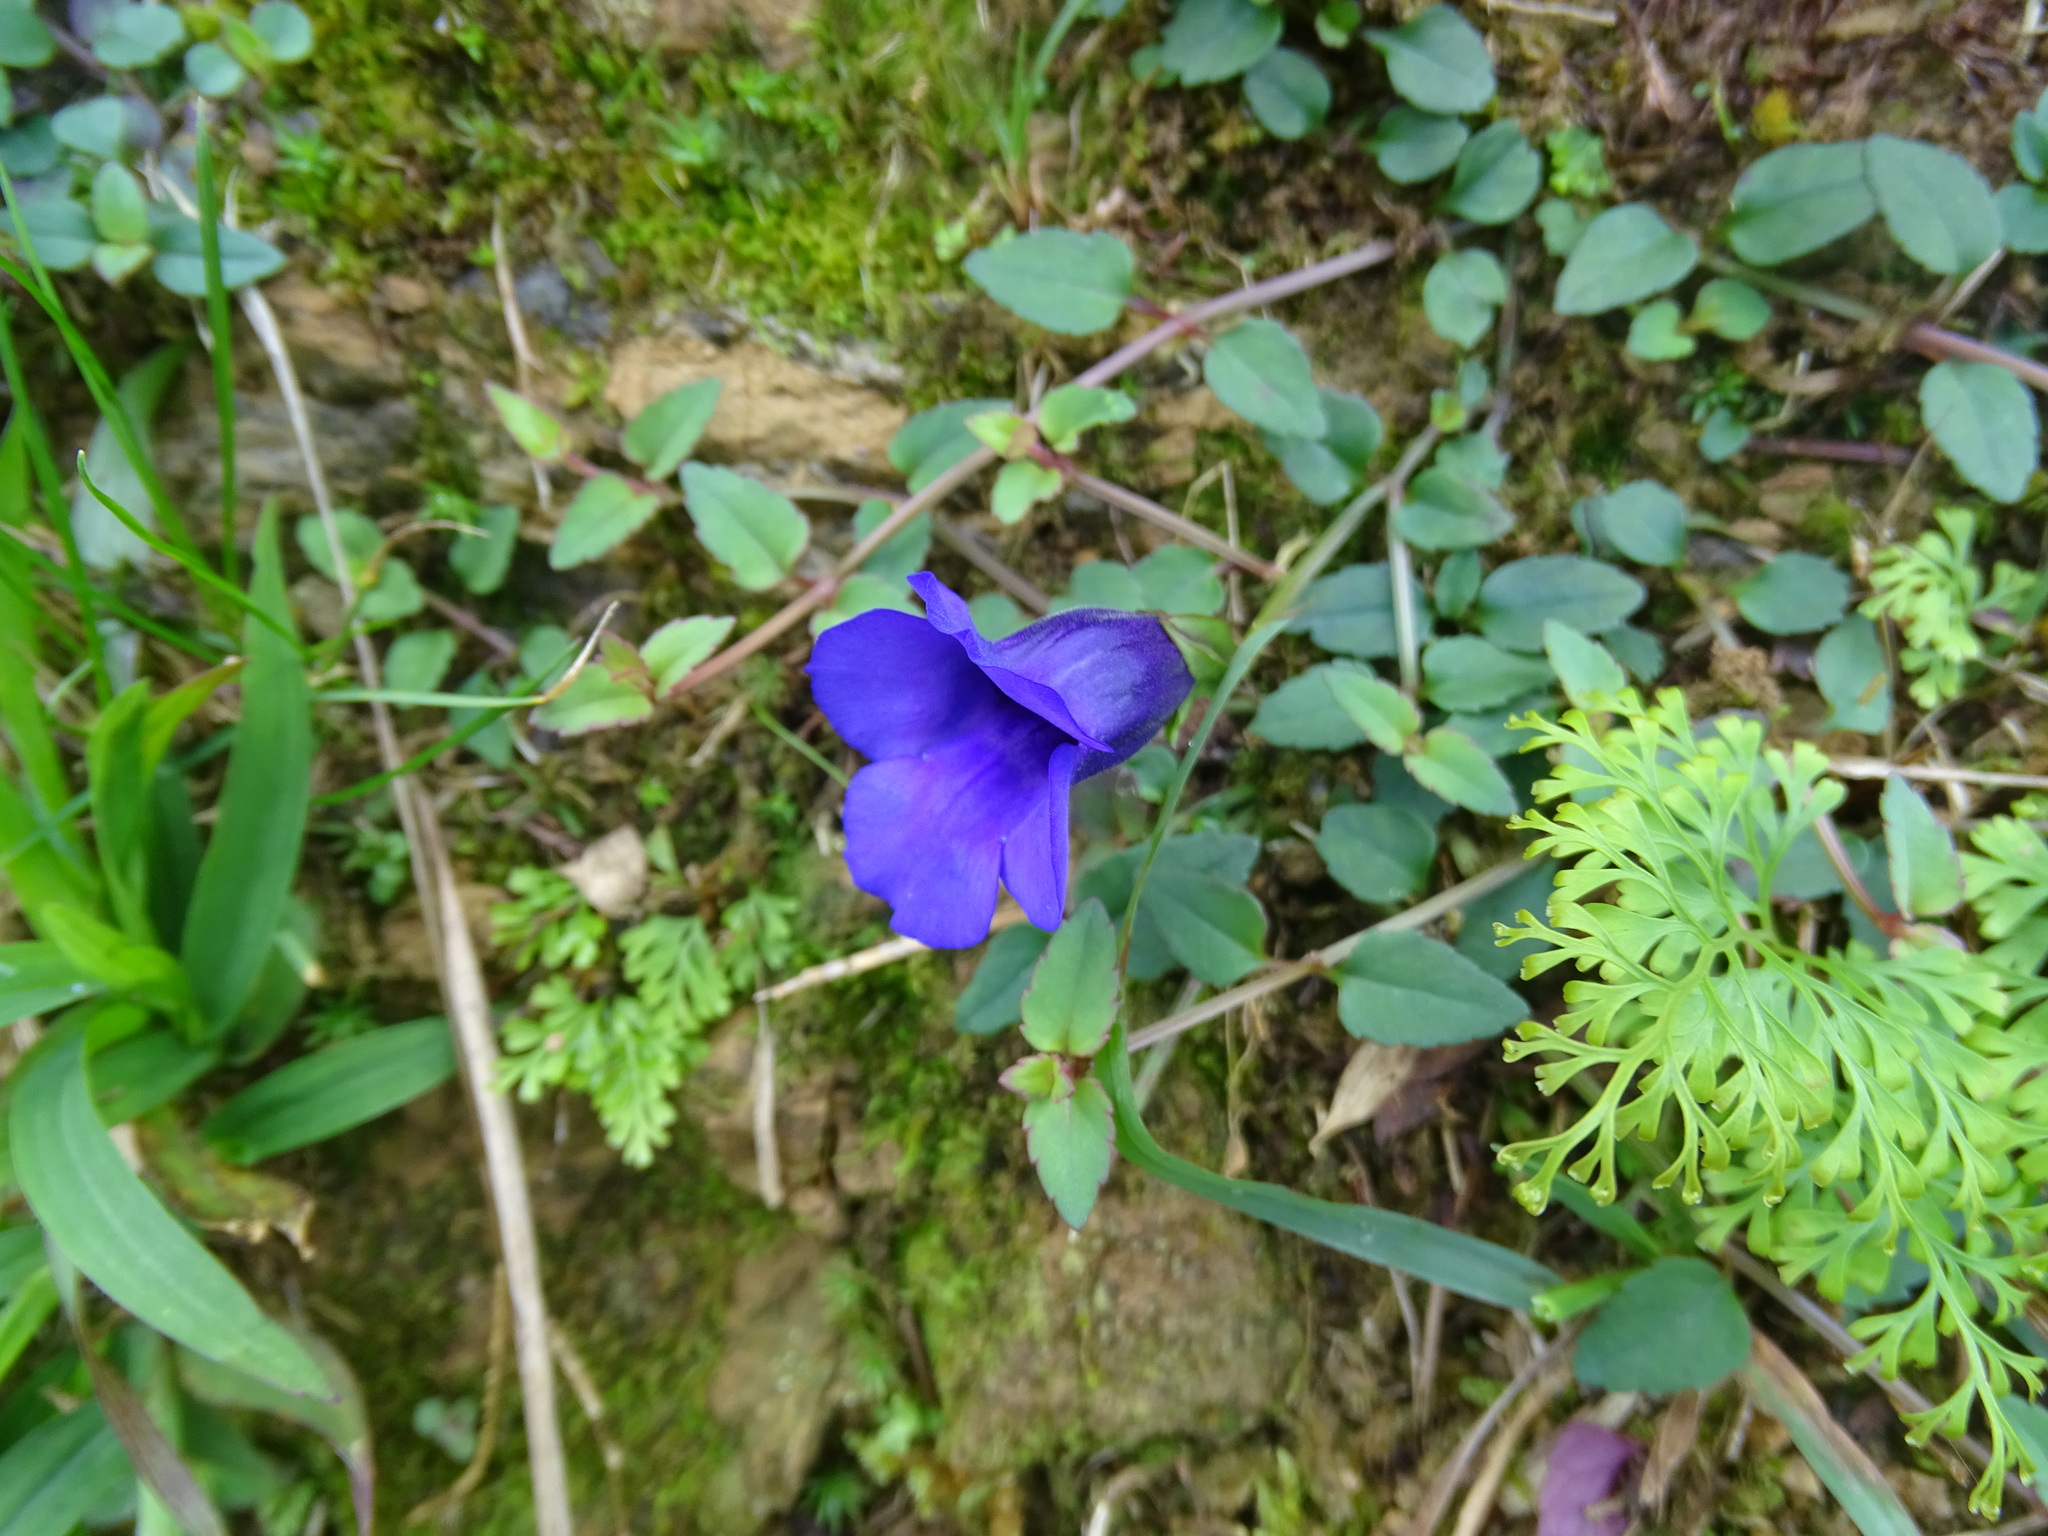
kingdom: Plantae
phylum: Tracheophyta
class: Magnoliopsida
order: Lamiales
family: Linderniaceae
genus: Torenia
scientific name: Torenia concolor
